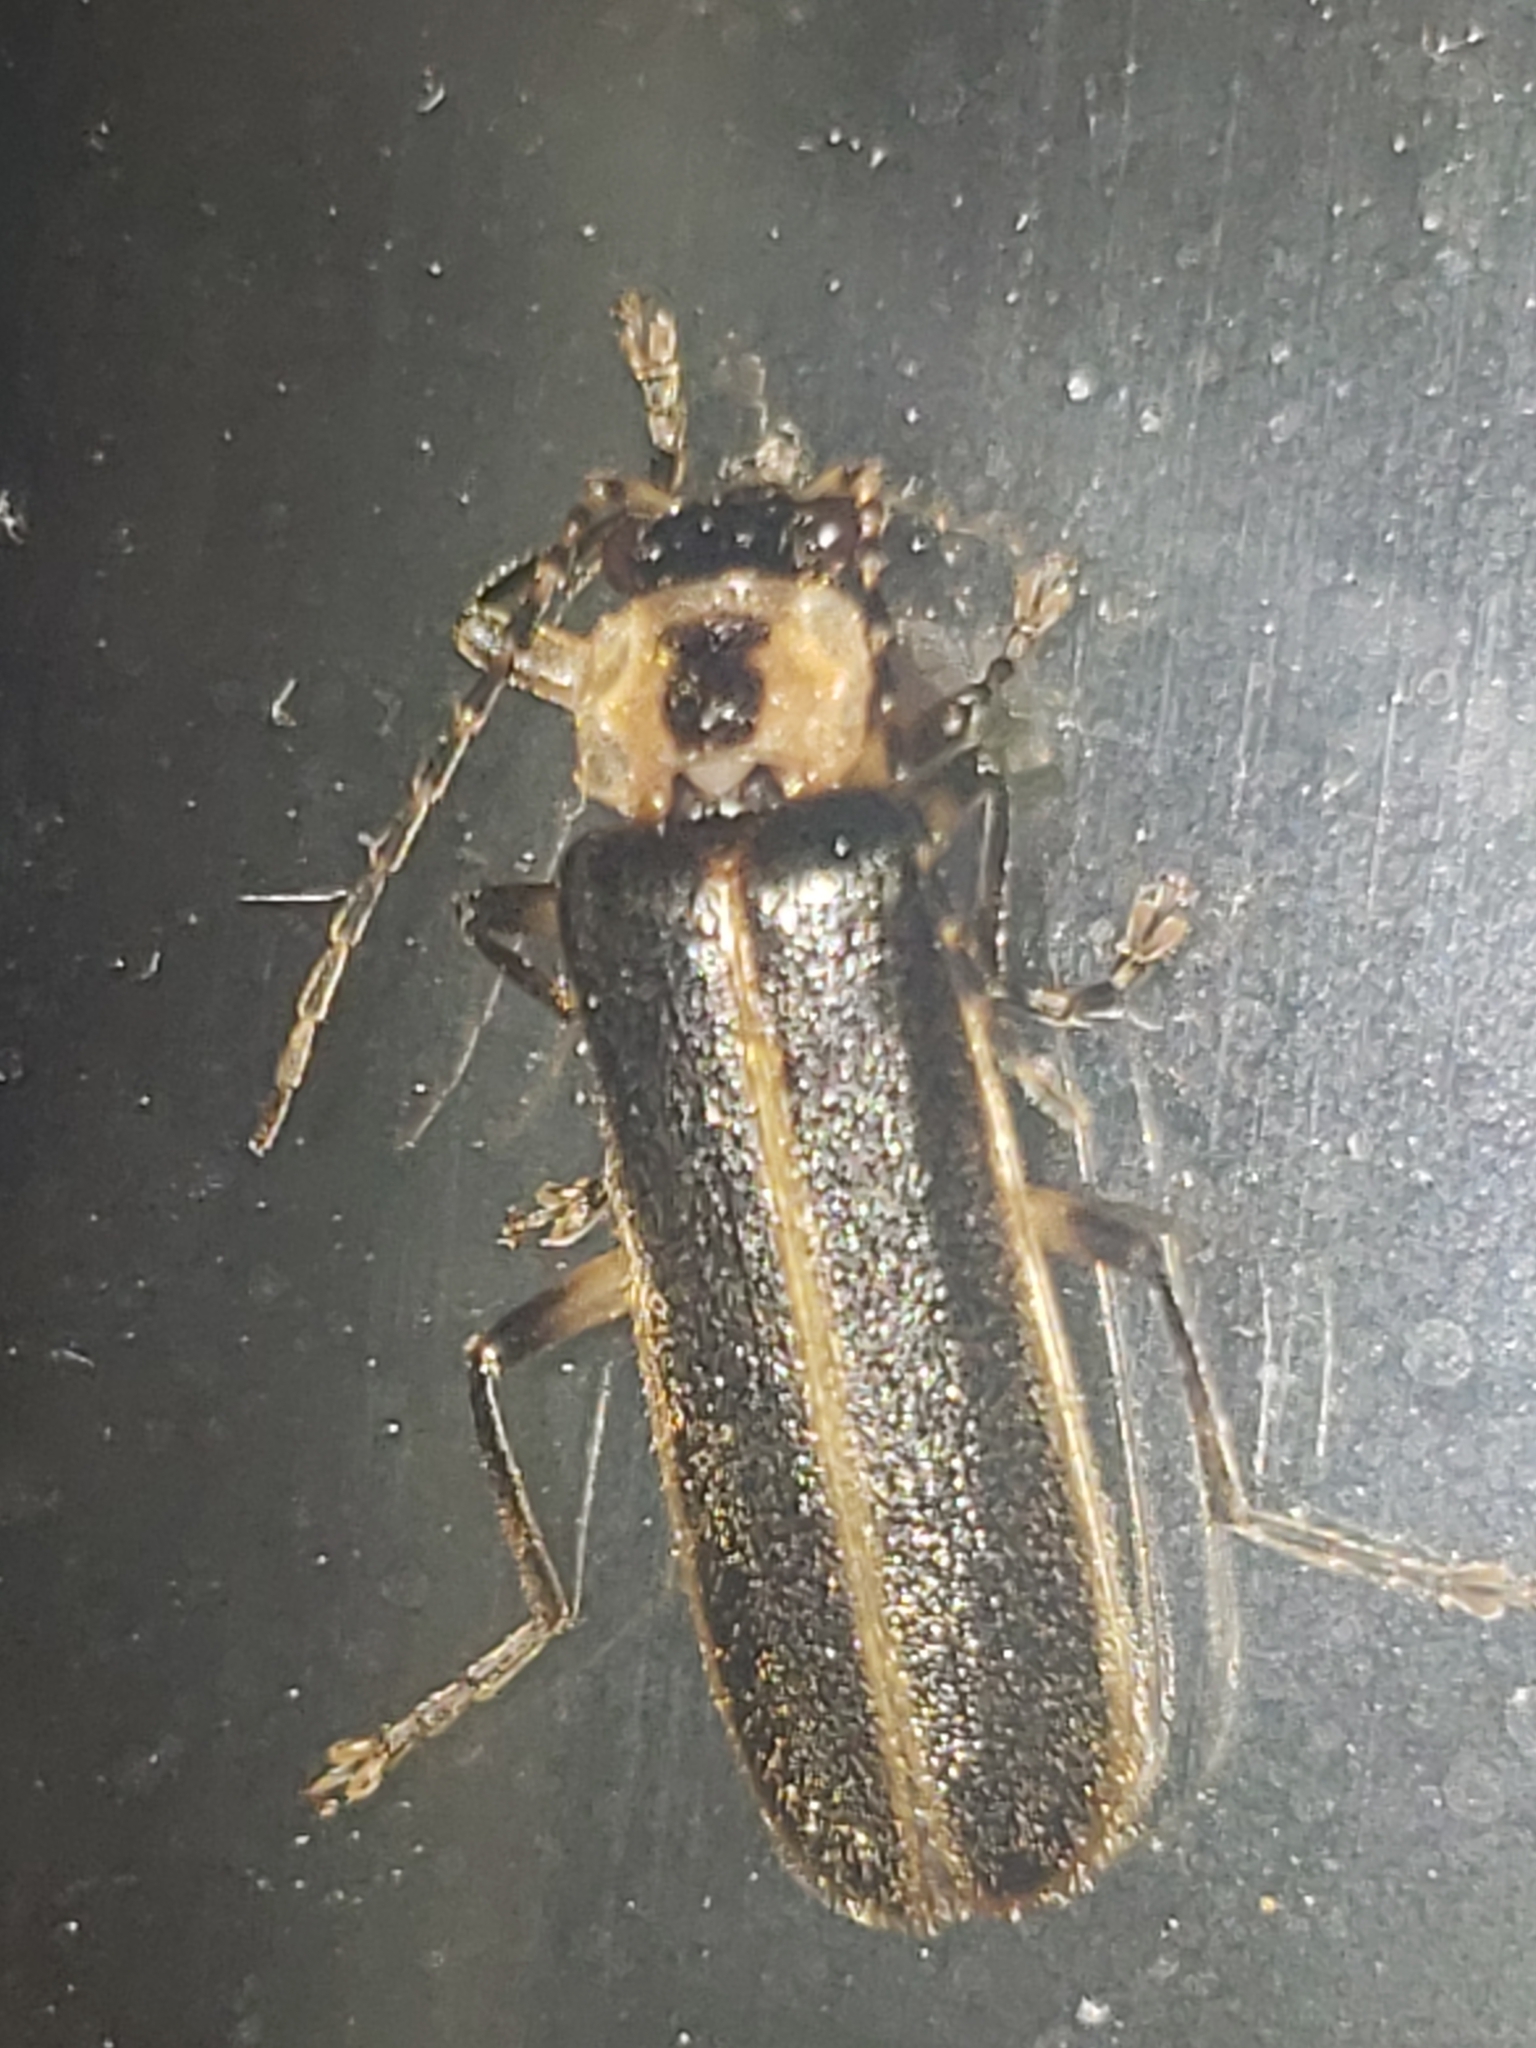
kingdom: Animalia
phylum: Arthropoda
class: Insecta
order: Coleoptera
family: Cantharidae
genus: Podabrus
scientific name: Podabrus basilaris
